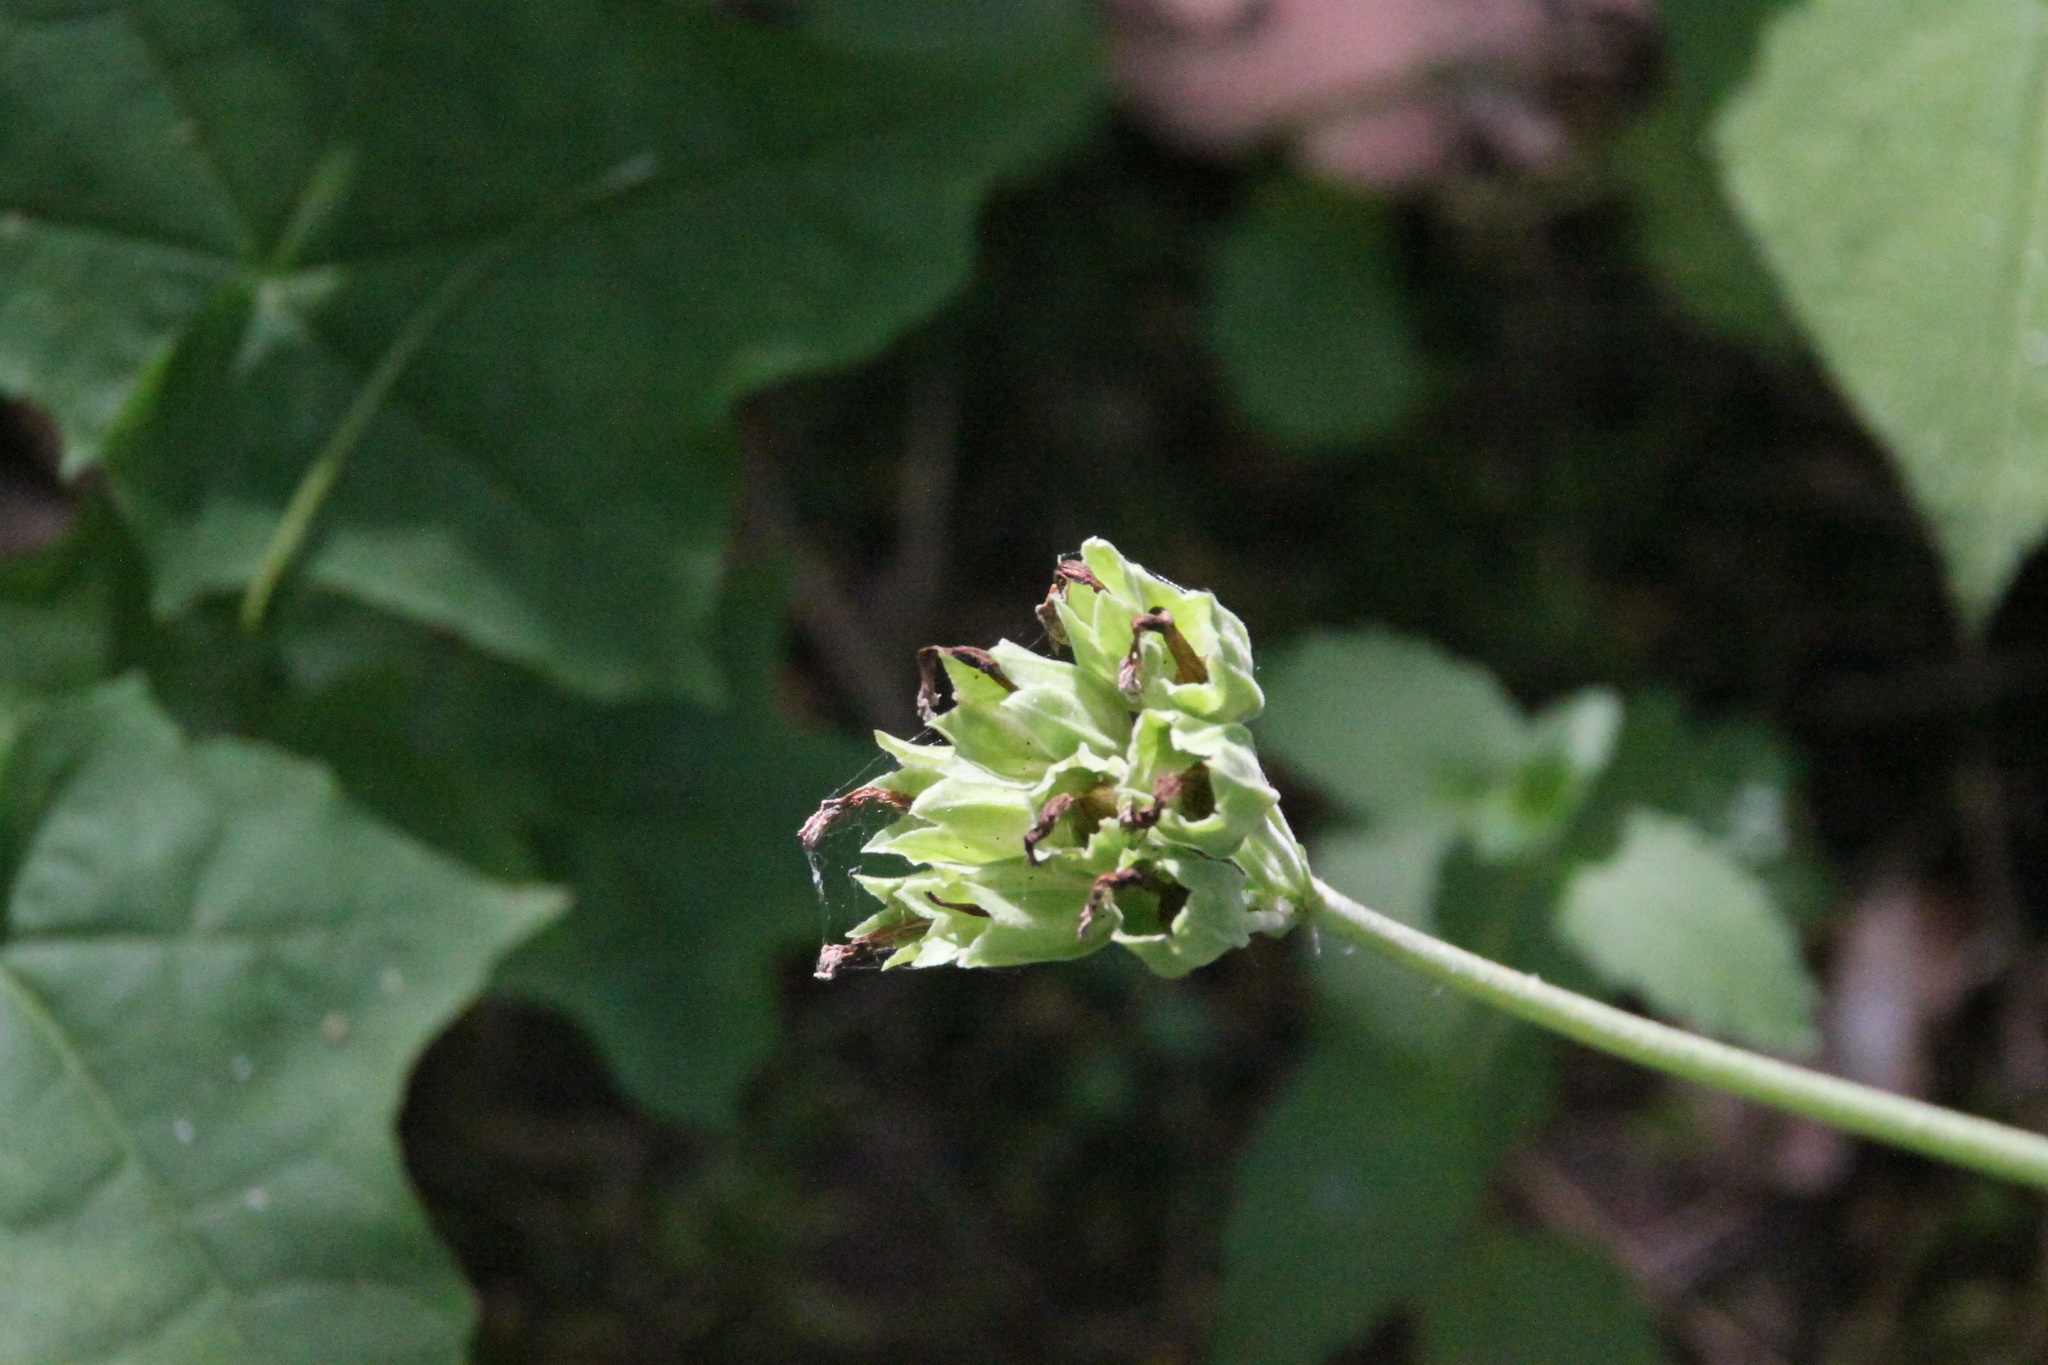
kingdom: Plantae
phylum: Tracheophyta
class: Magnoliopsida
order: Ericales
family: Primulaceae
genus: Primula
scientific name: Primula veris
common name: Cowslip
